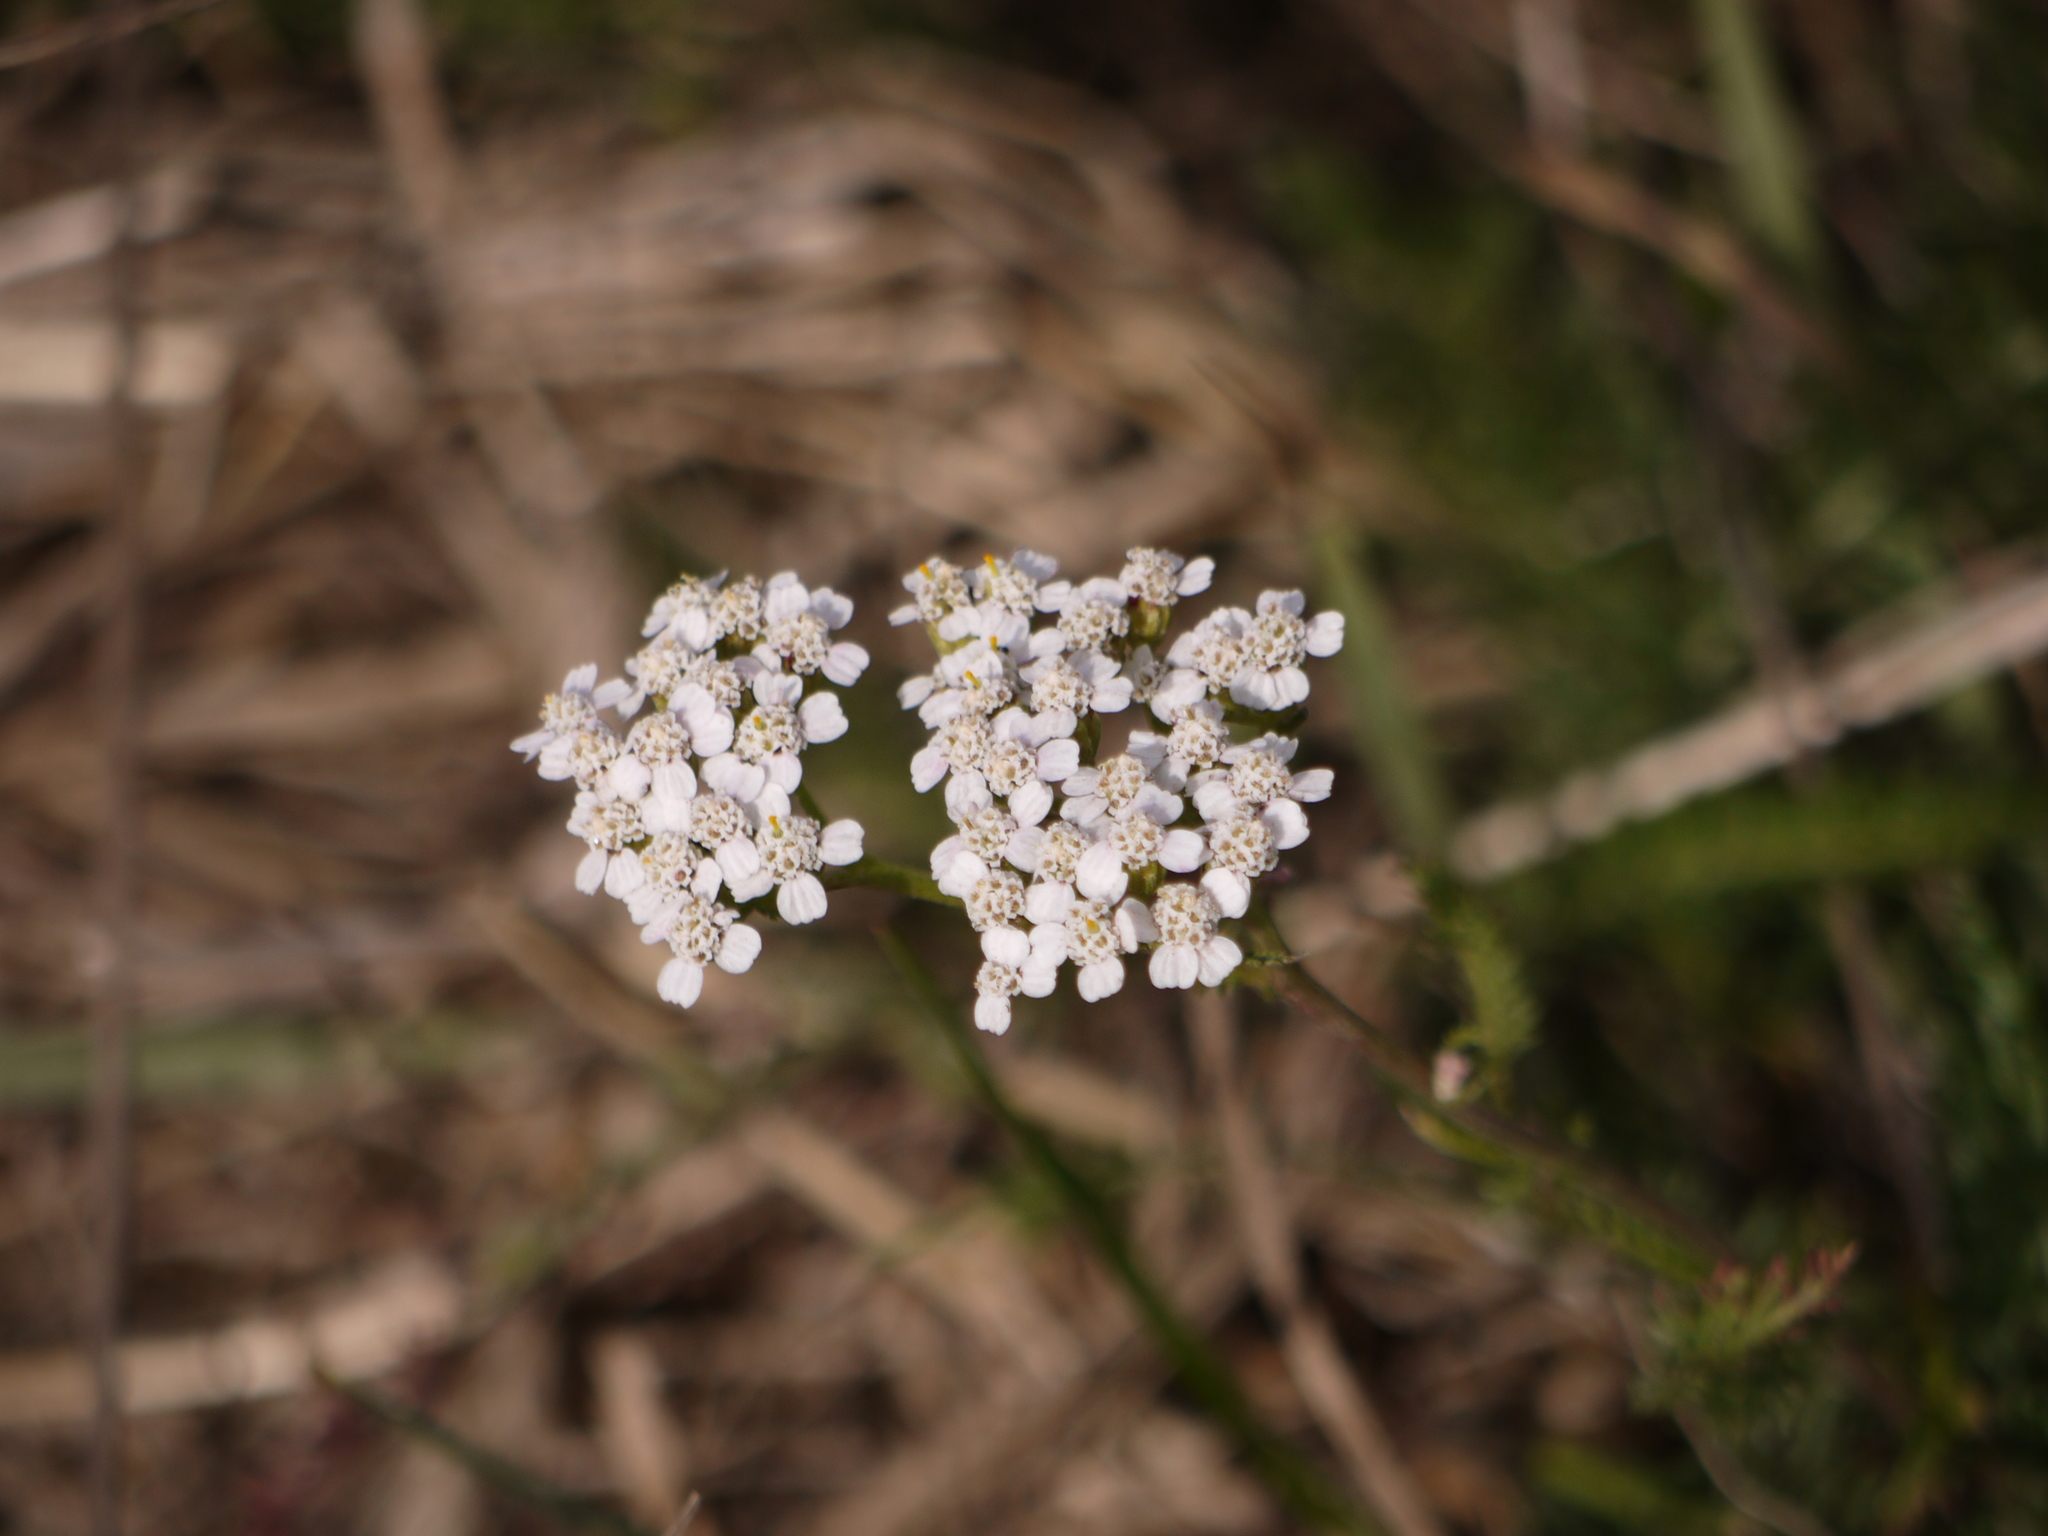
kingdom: Plantae
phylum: Tracheophyta
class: Magnoliopsida
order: Asterales
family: Asteraceae
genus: Achillea
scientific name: Achillea millefolium
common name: Yarrow
